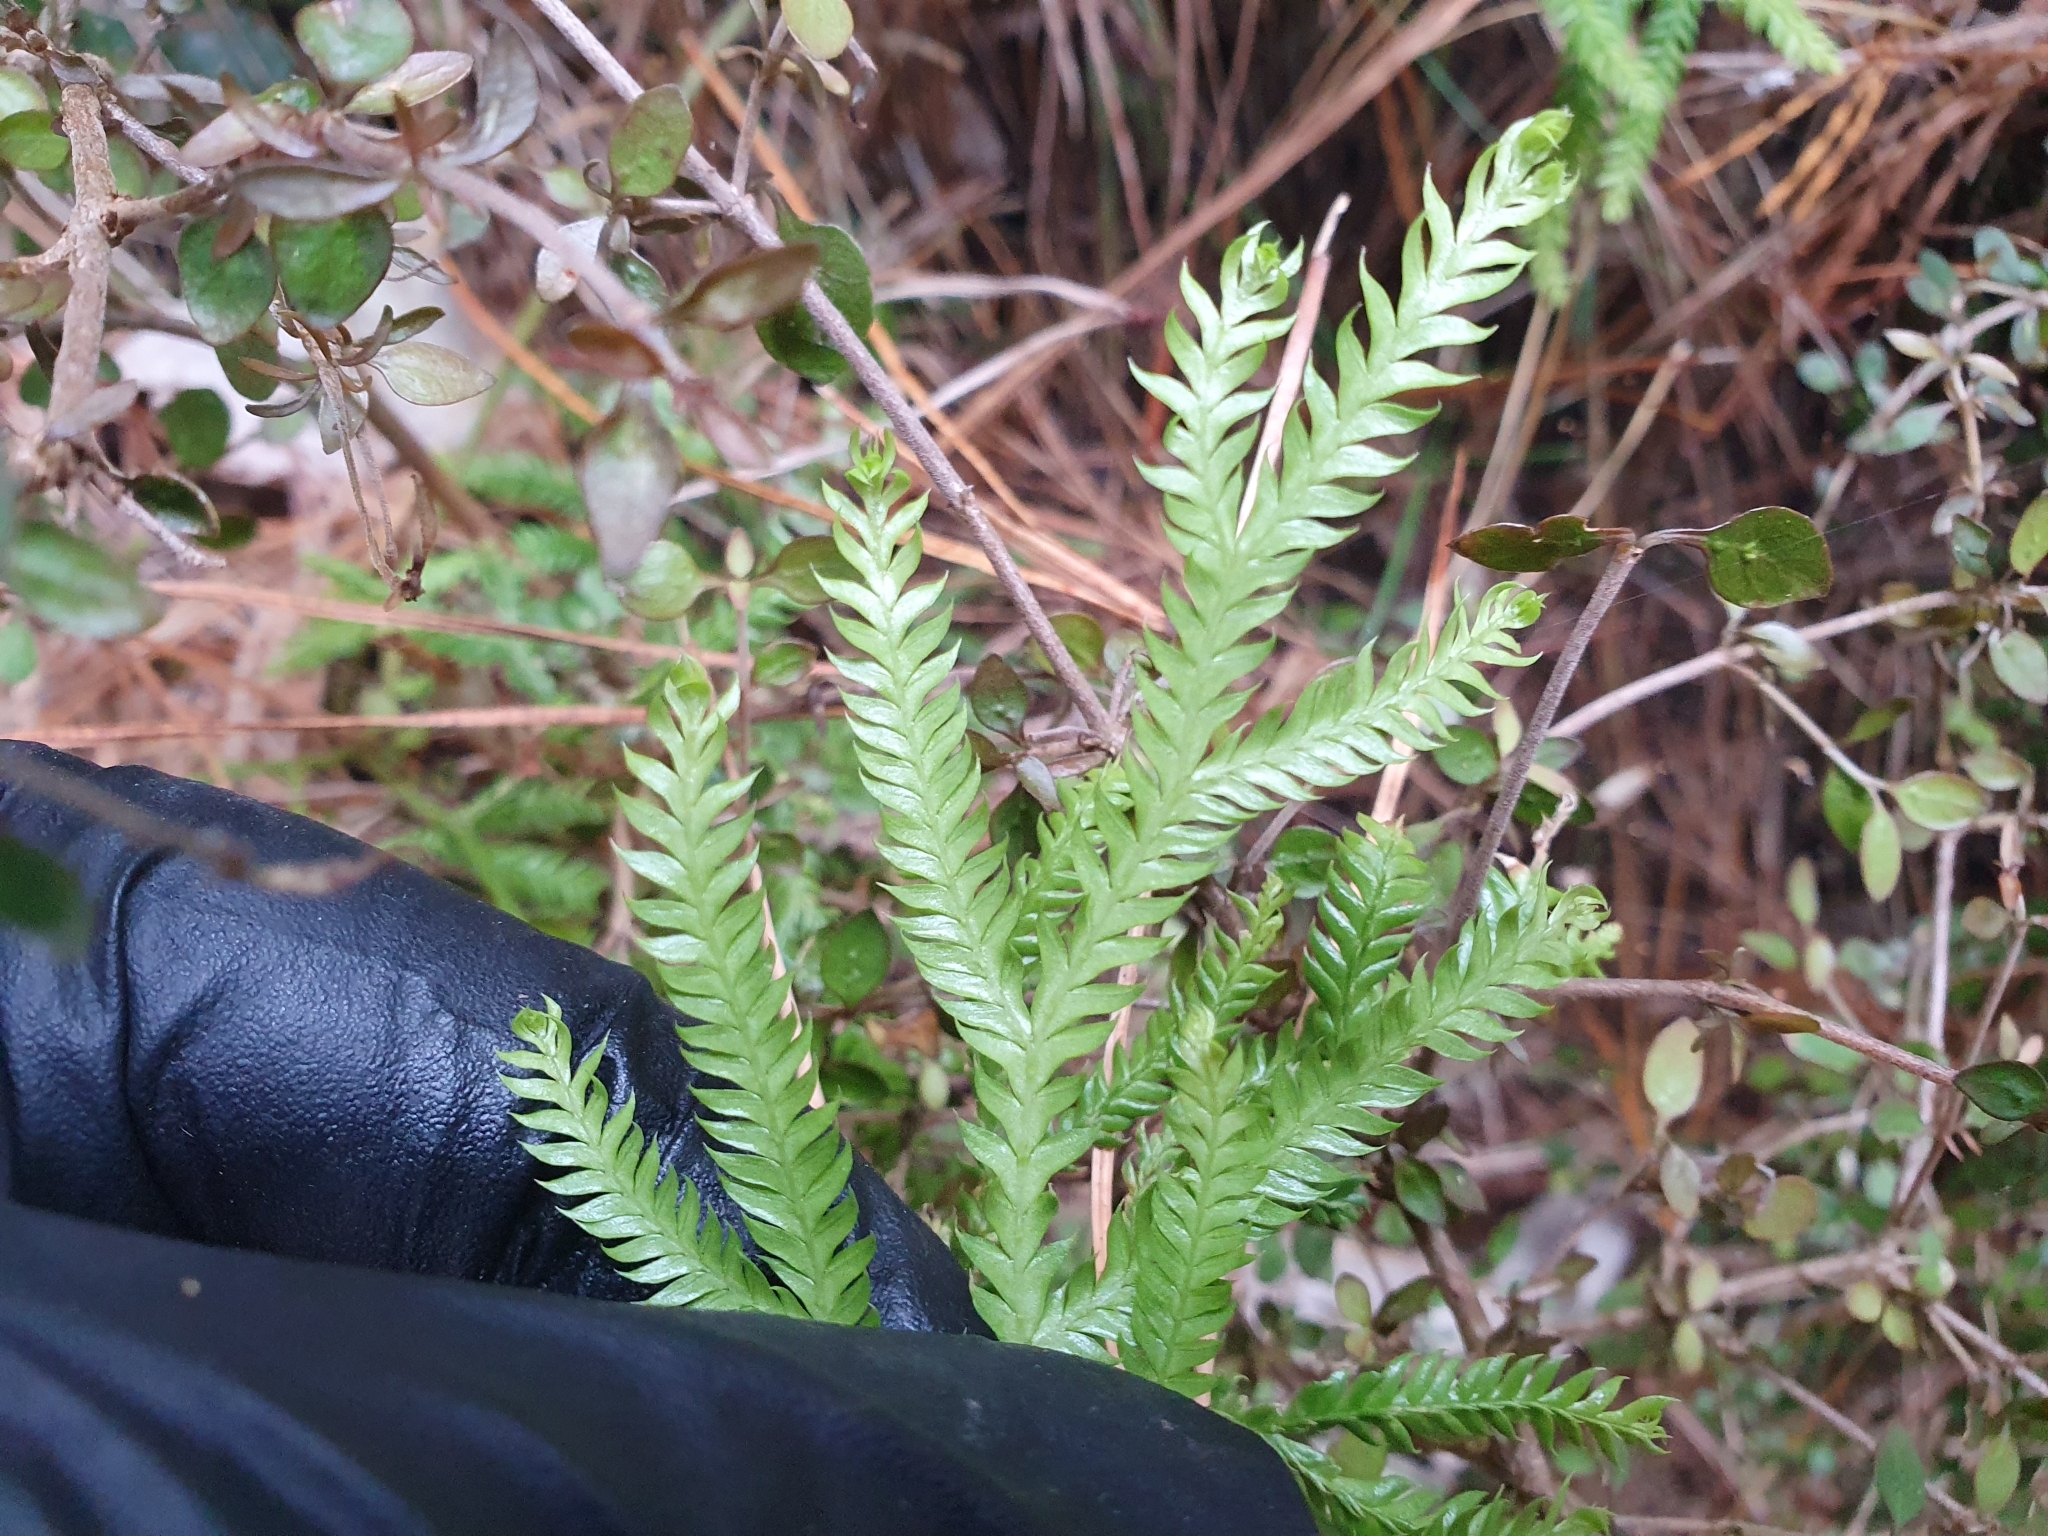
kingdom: Plantae
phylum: Tracheophyta
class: Lycopodiopsida
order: Lycopodiales
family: Lycopodiaceae
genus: Lycopodium
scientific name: Lycopodium volubile
